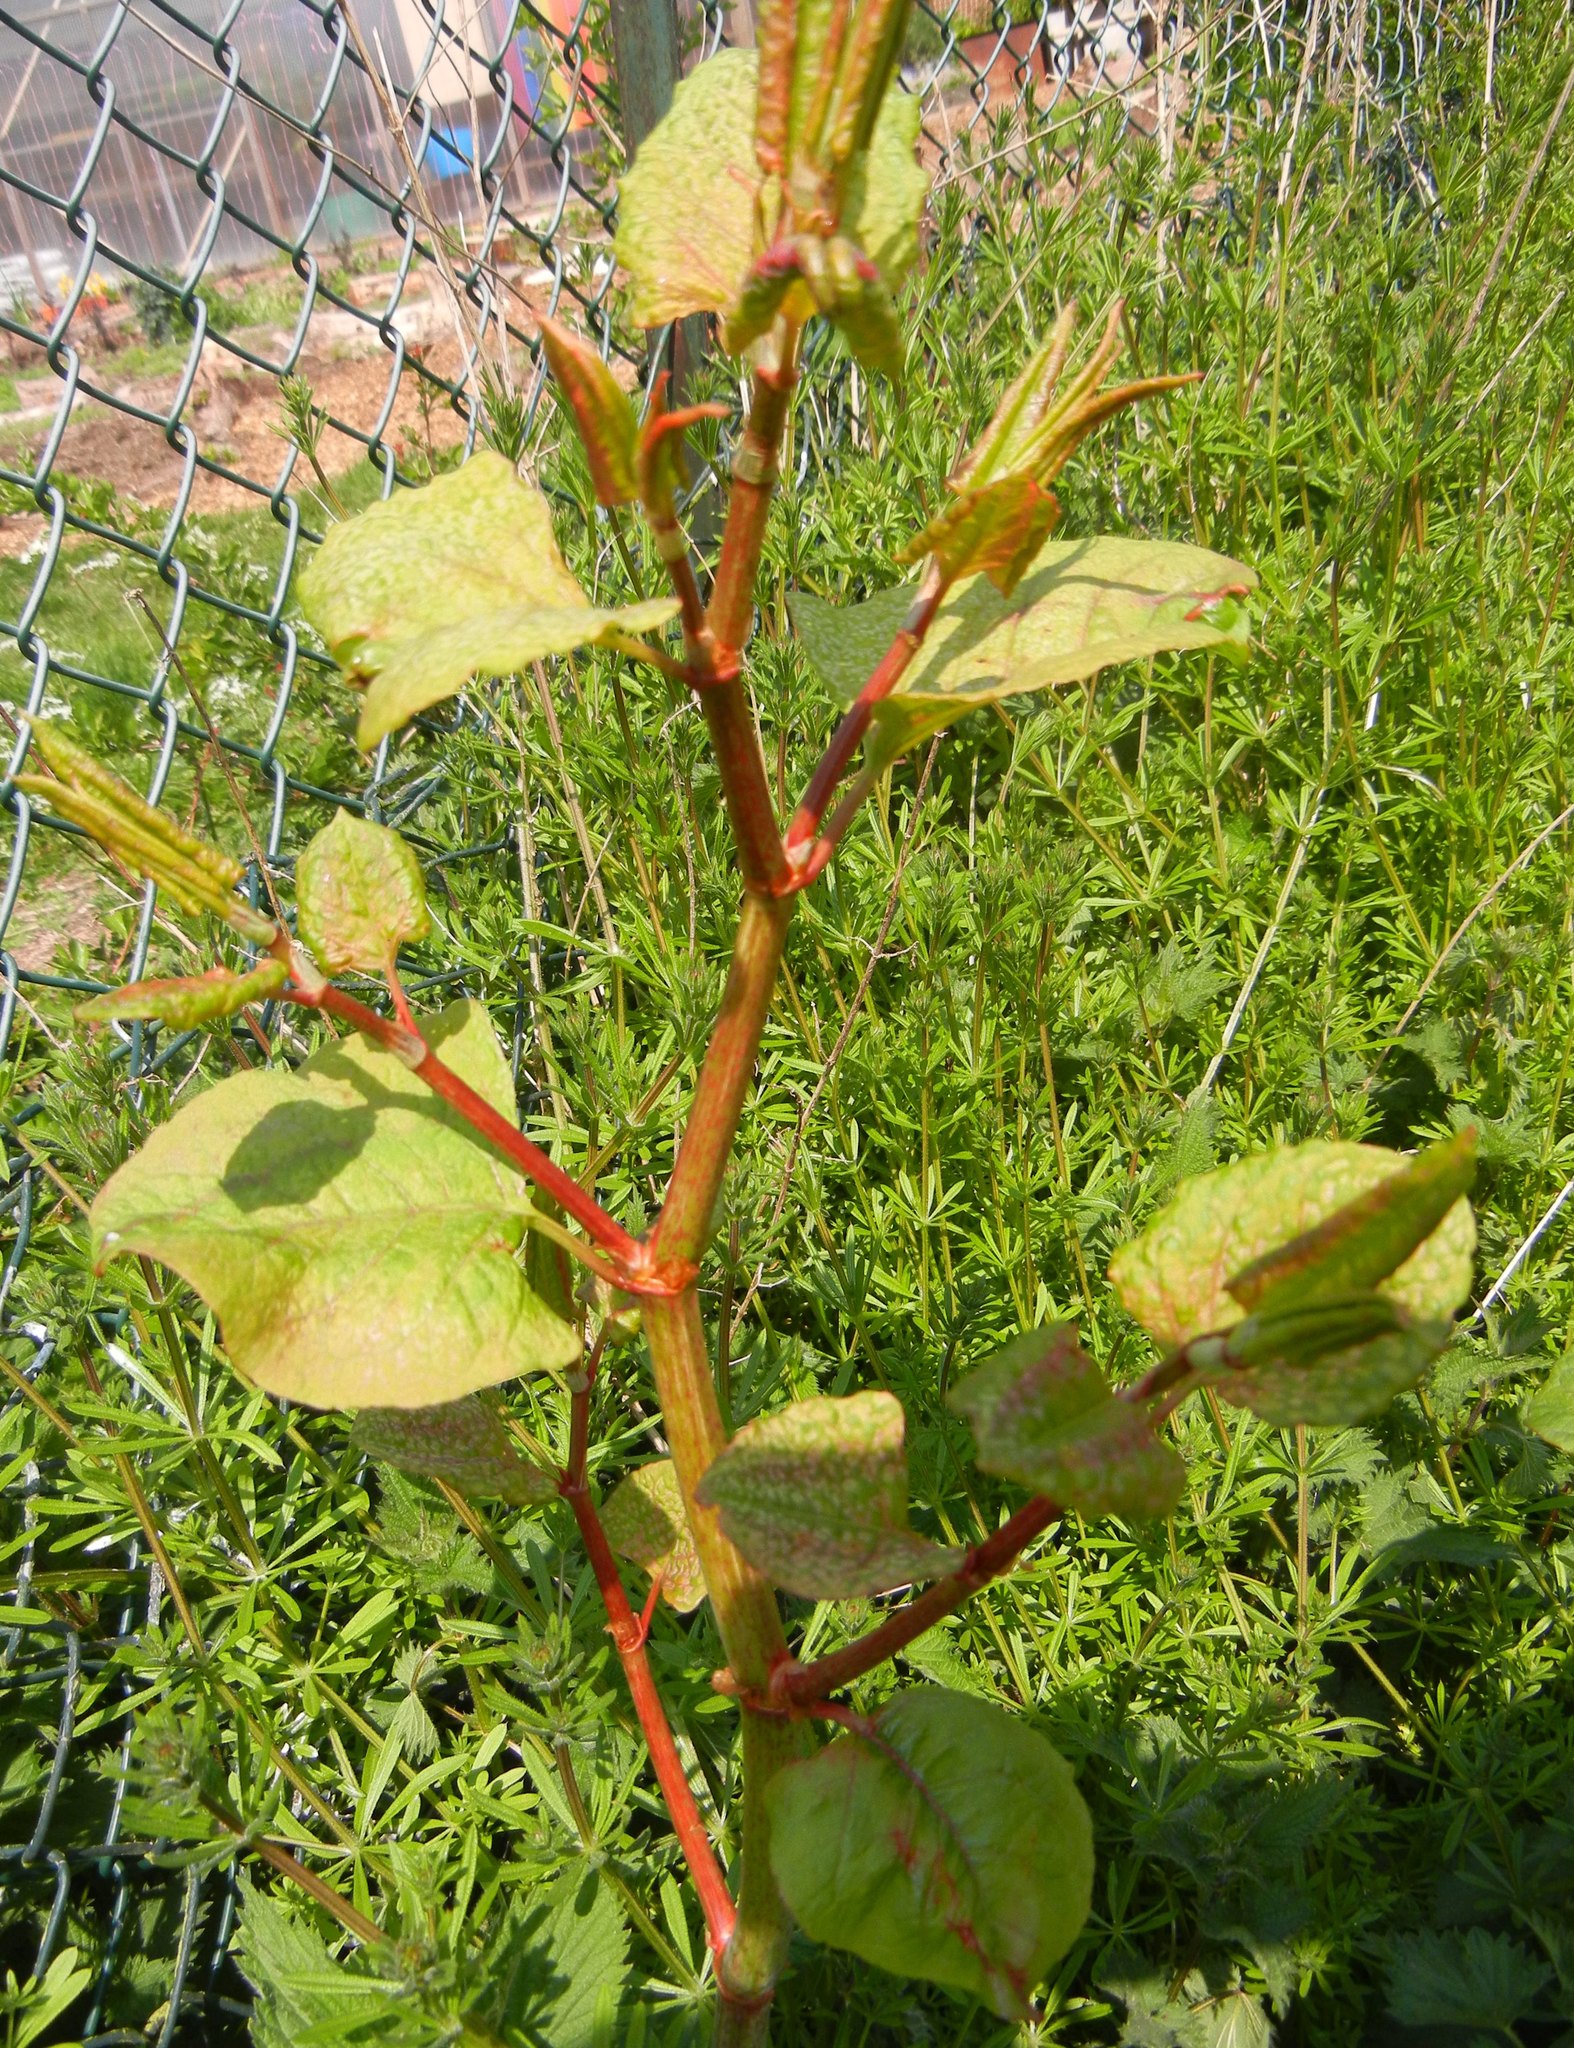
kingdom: Plantae
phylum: Tracheophyta
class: Magnoliopsida
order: Caryophyllales
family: Polygonaceae
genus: Reynoutria
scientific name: Reynoutria japonica
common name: Japanese knotweed
